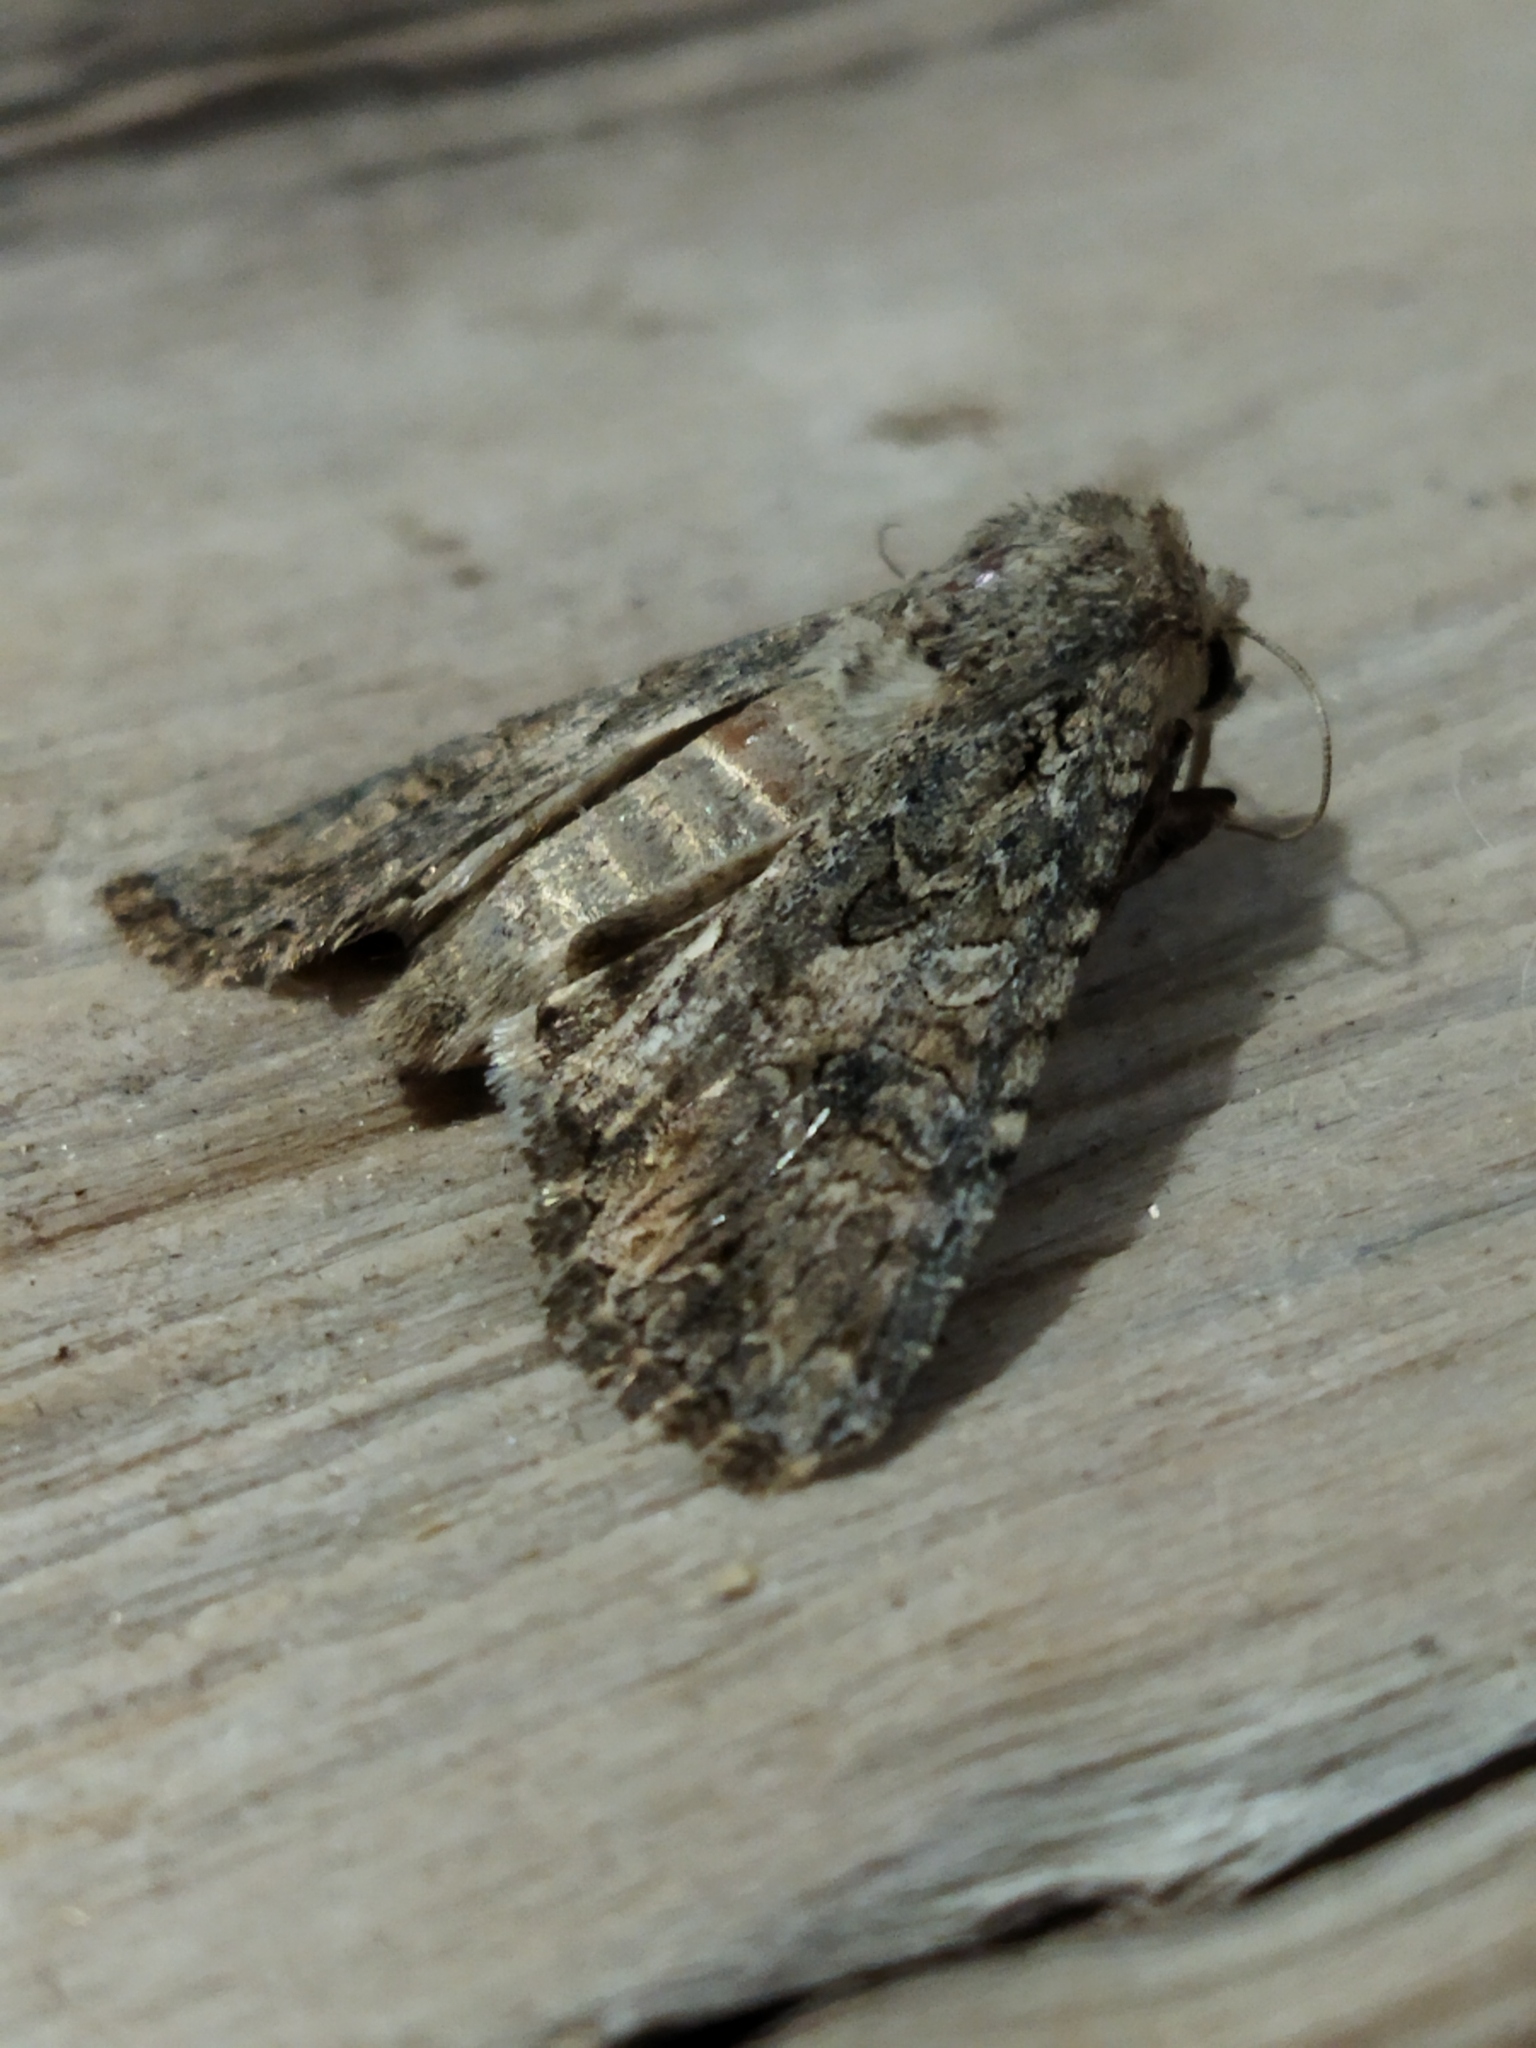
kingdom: Animalia
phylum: Arthropoda
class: Insecta
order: Lepidoptera
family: Noctuidae
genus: Anarta
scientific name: Anarta trifolii
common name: Clover cutworm moth
